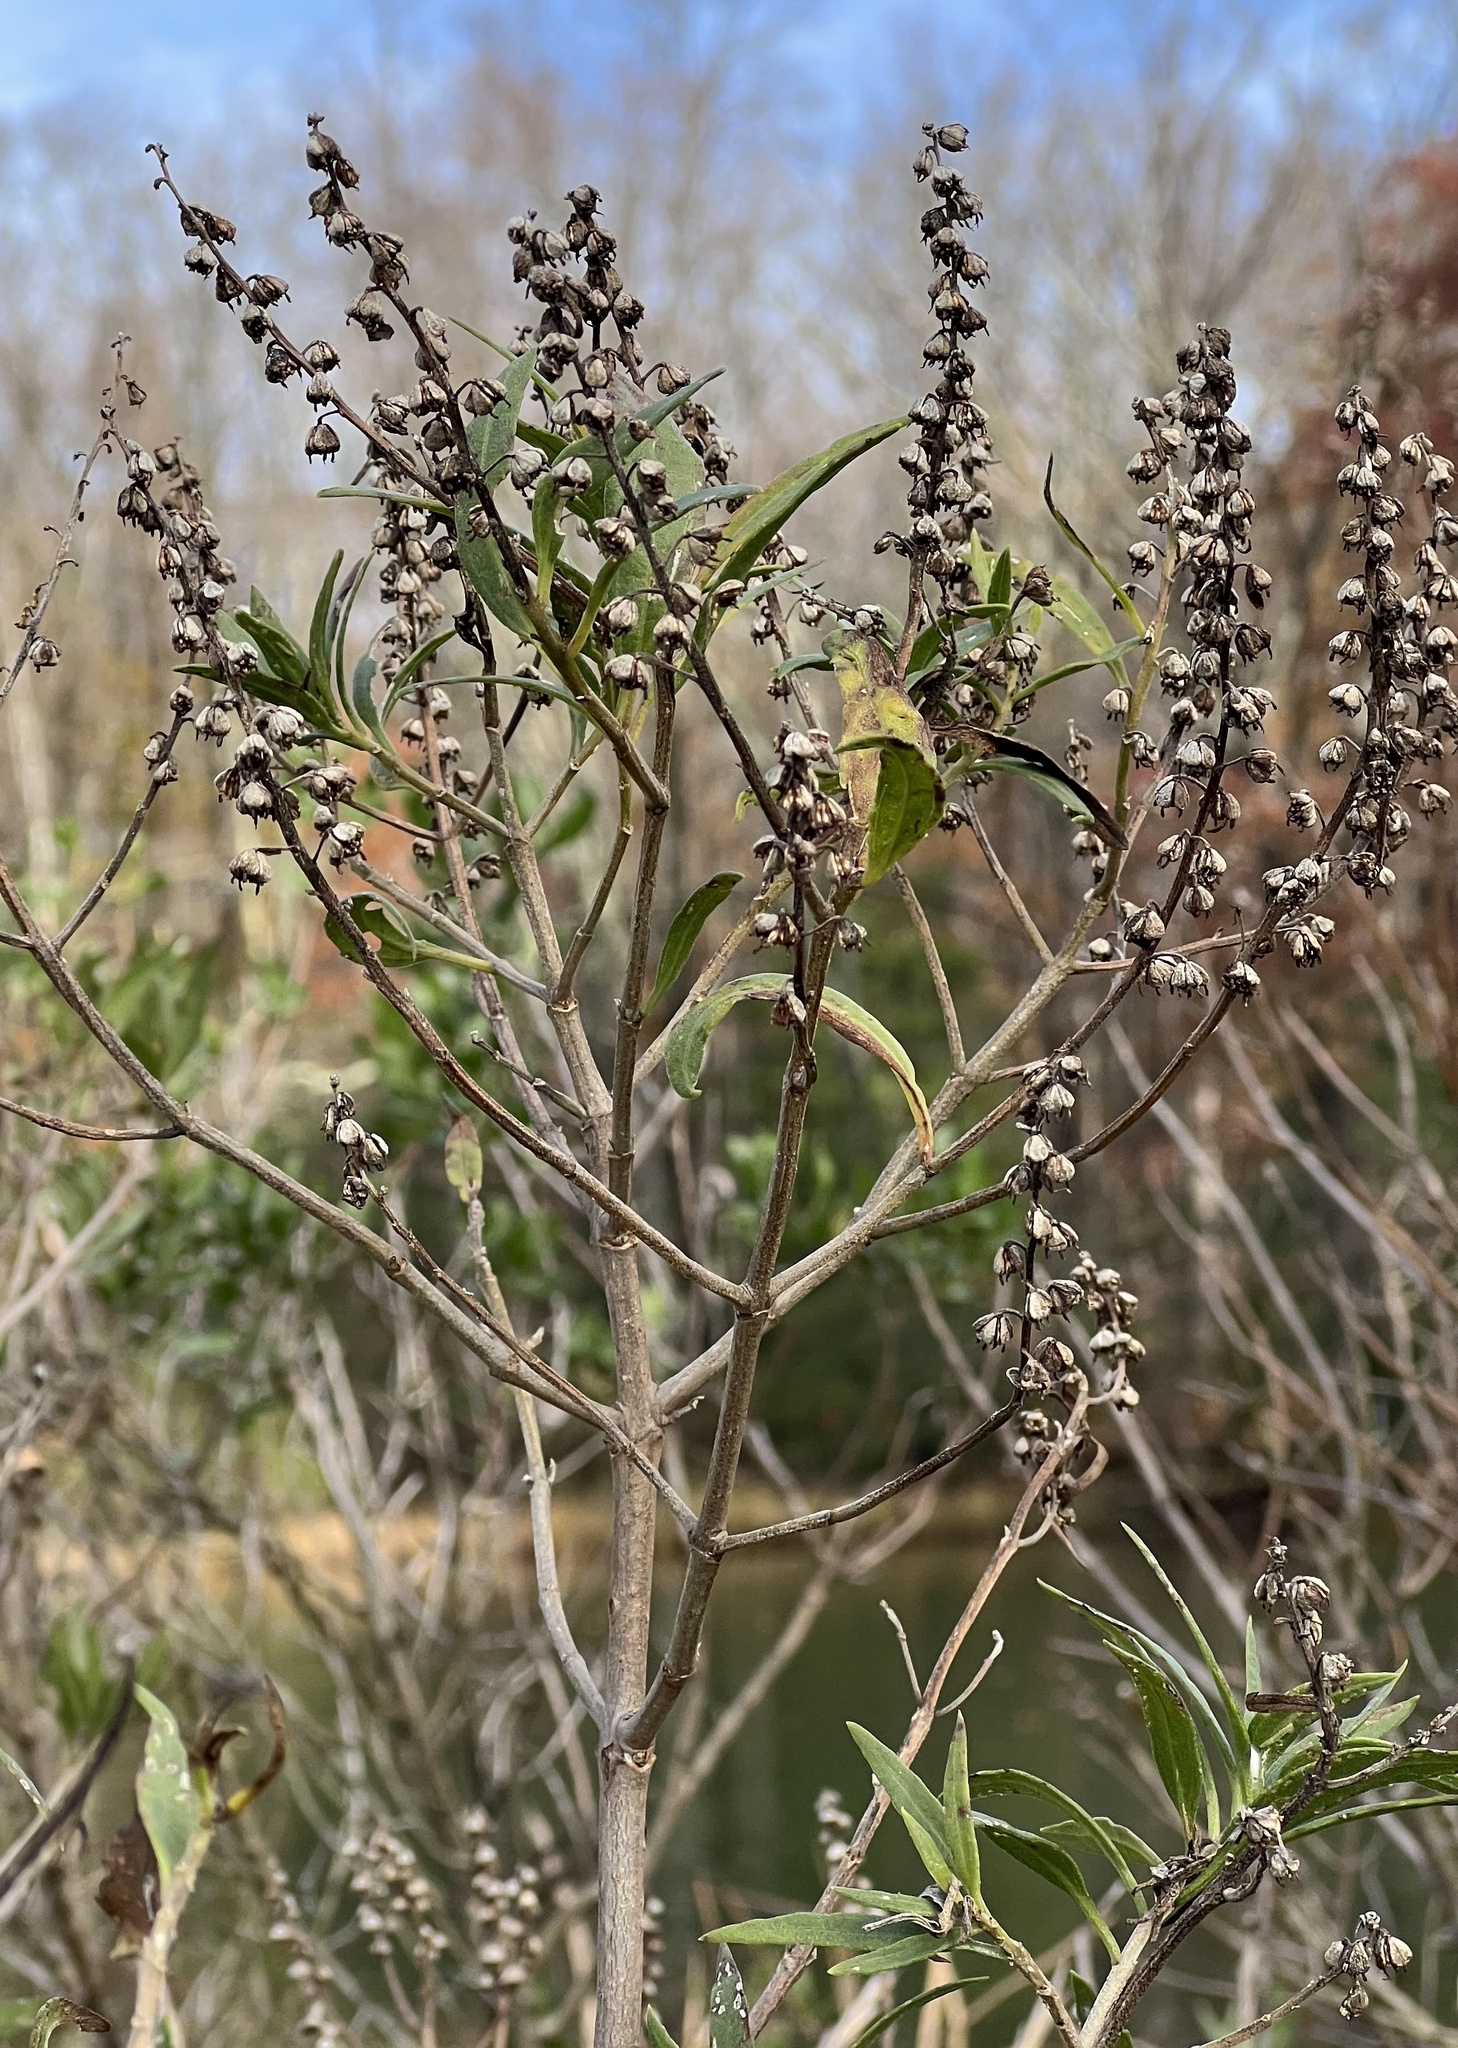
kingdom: Plantae
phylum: Tracheophyta
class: Magnoliopsida
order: Asterales
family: Asteraceae
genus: Iva
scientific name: Iva frutescens
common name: Big-leaved marsh-elder
